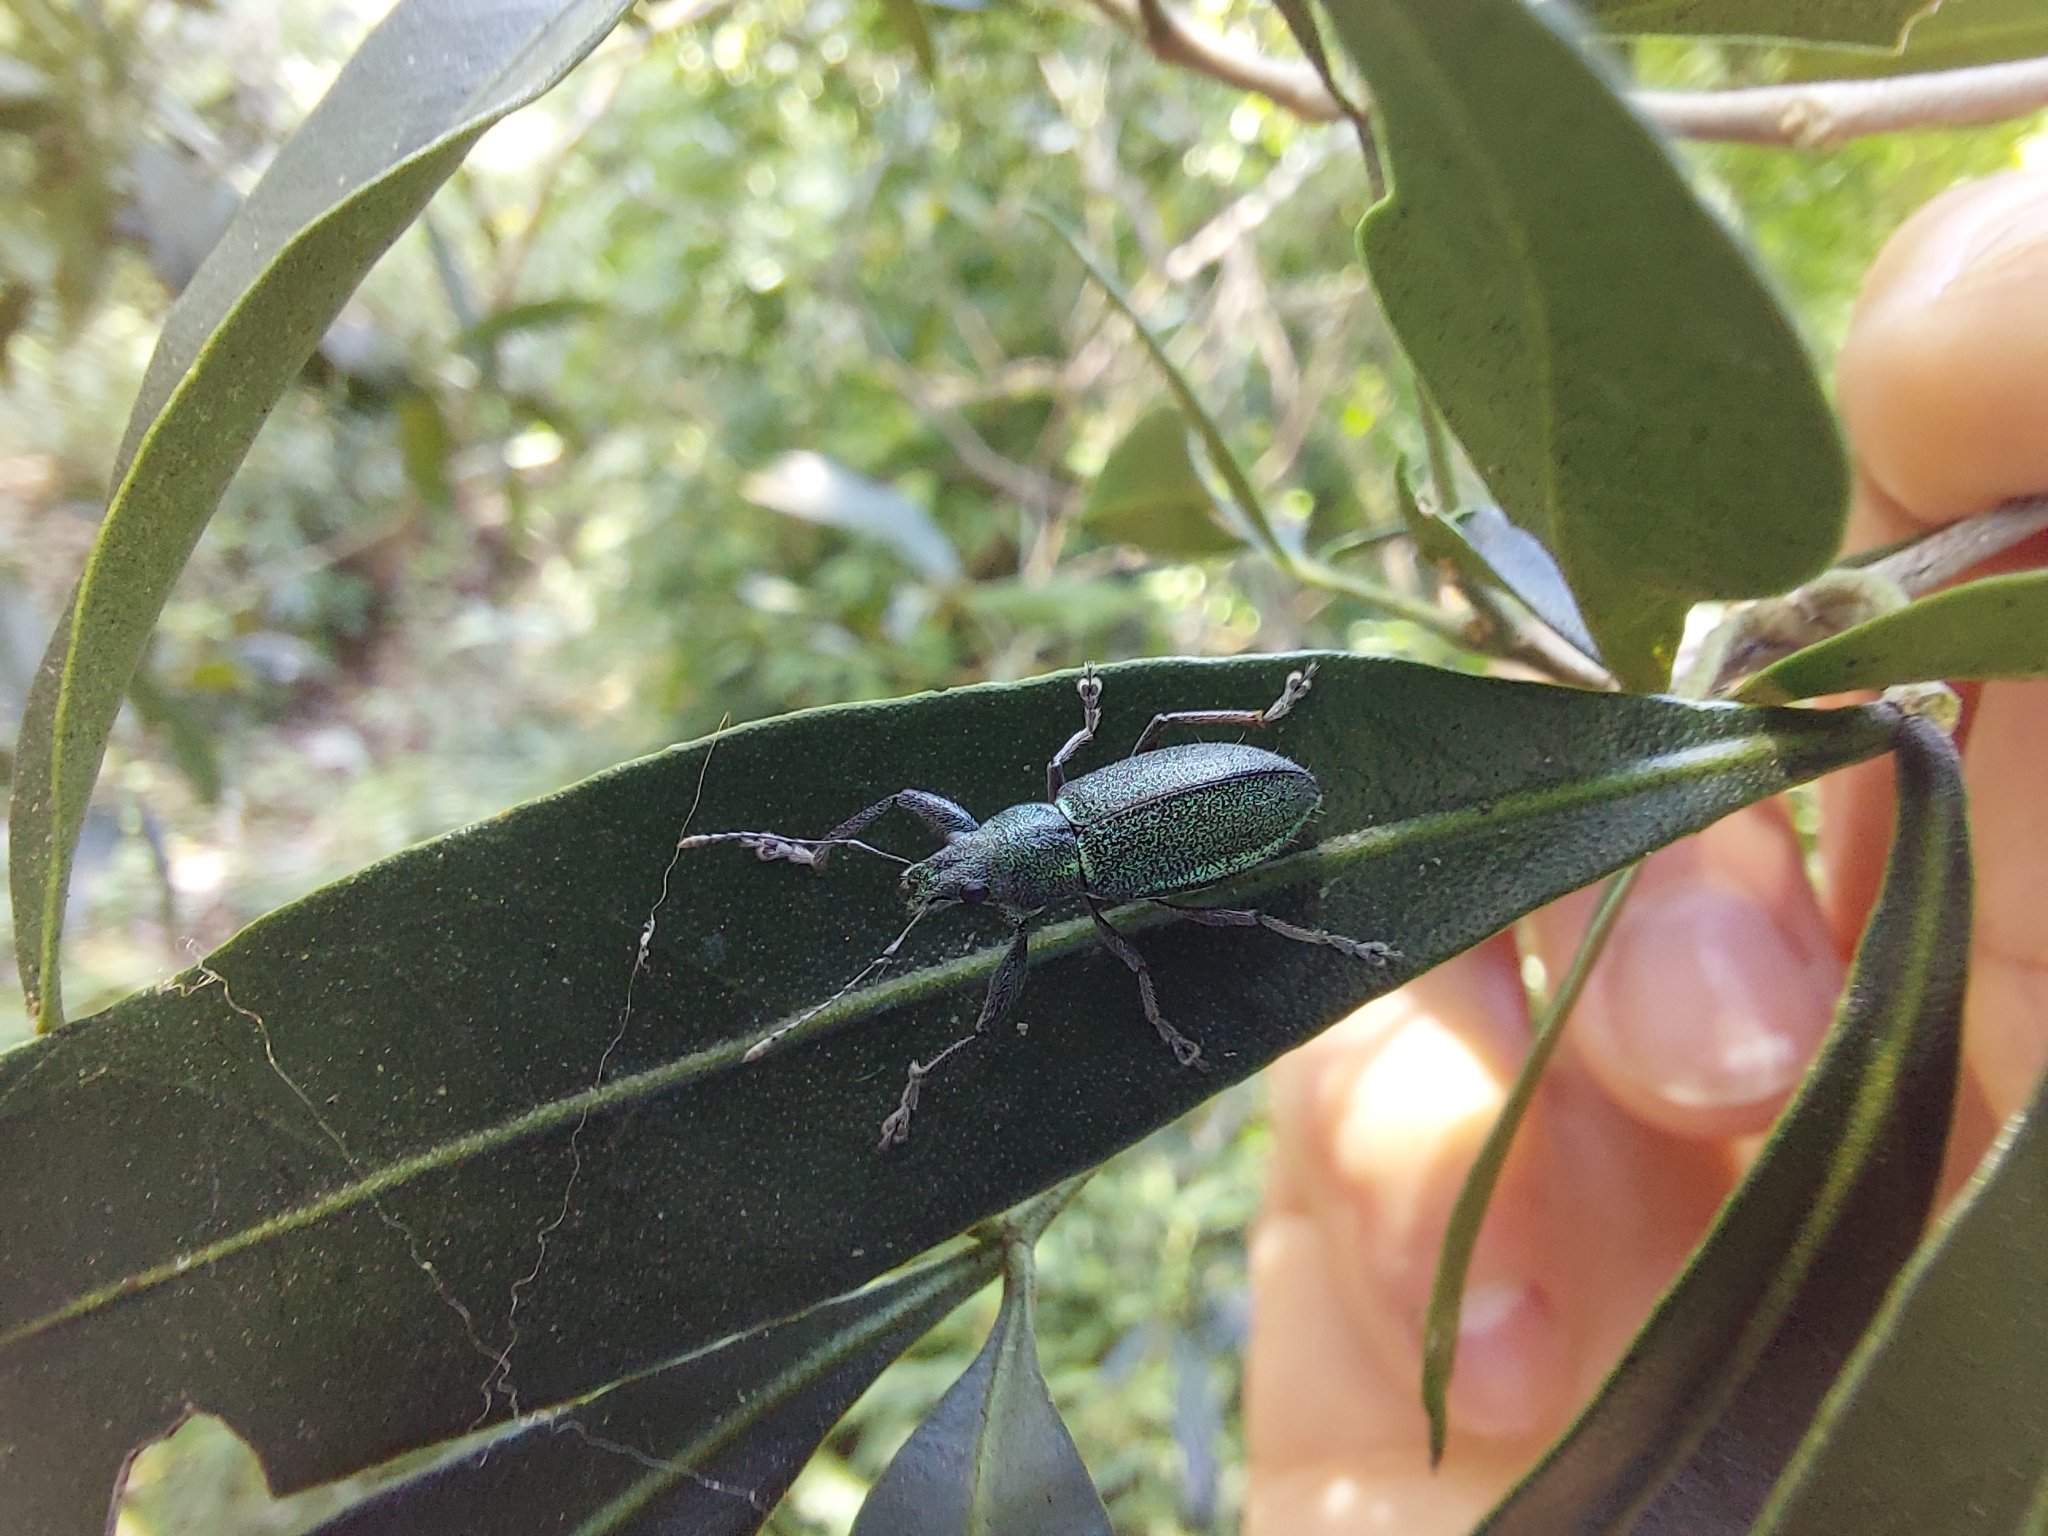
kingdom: Animalia
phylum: Arthropoda
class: Insecta
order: Coleoptera
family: Curculionidae
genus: Naupactus
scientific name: Naupactus auricinctus
